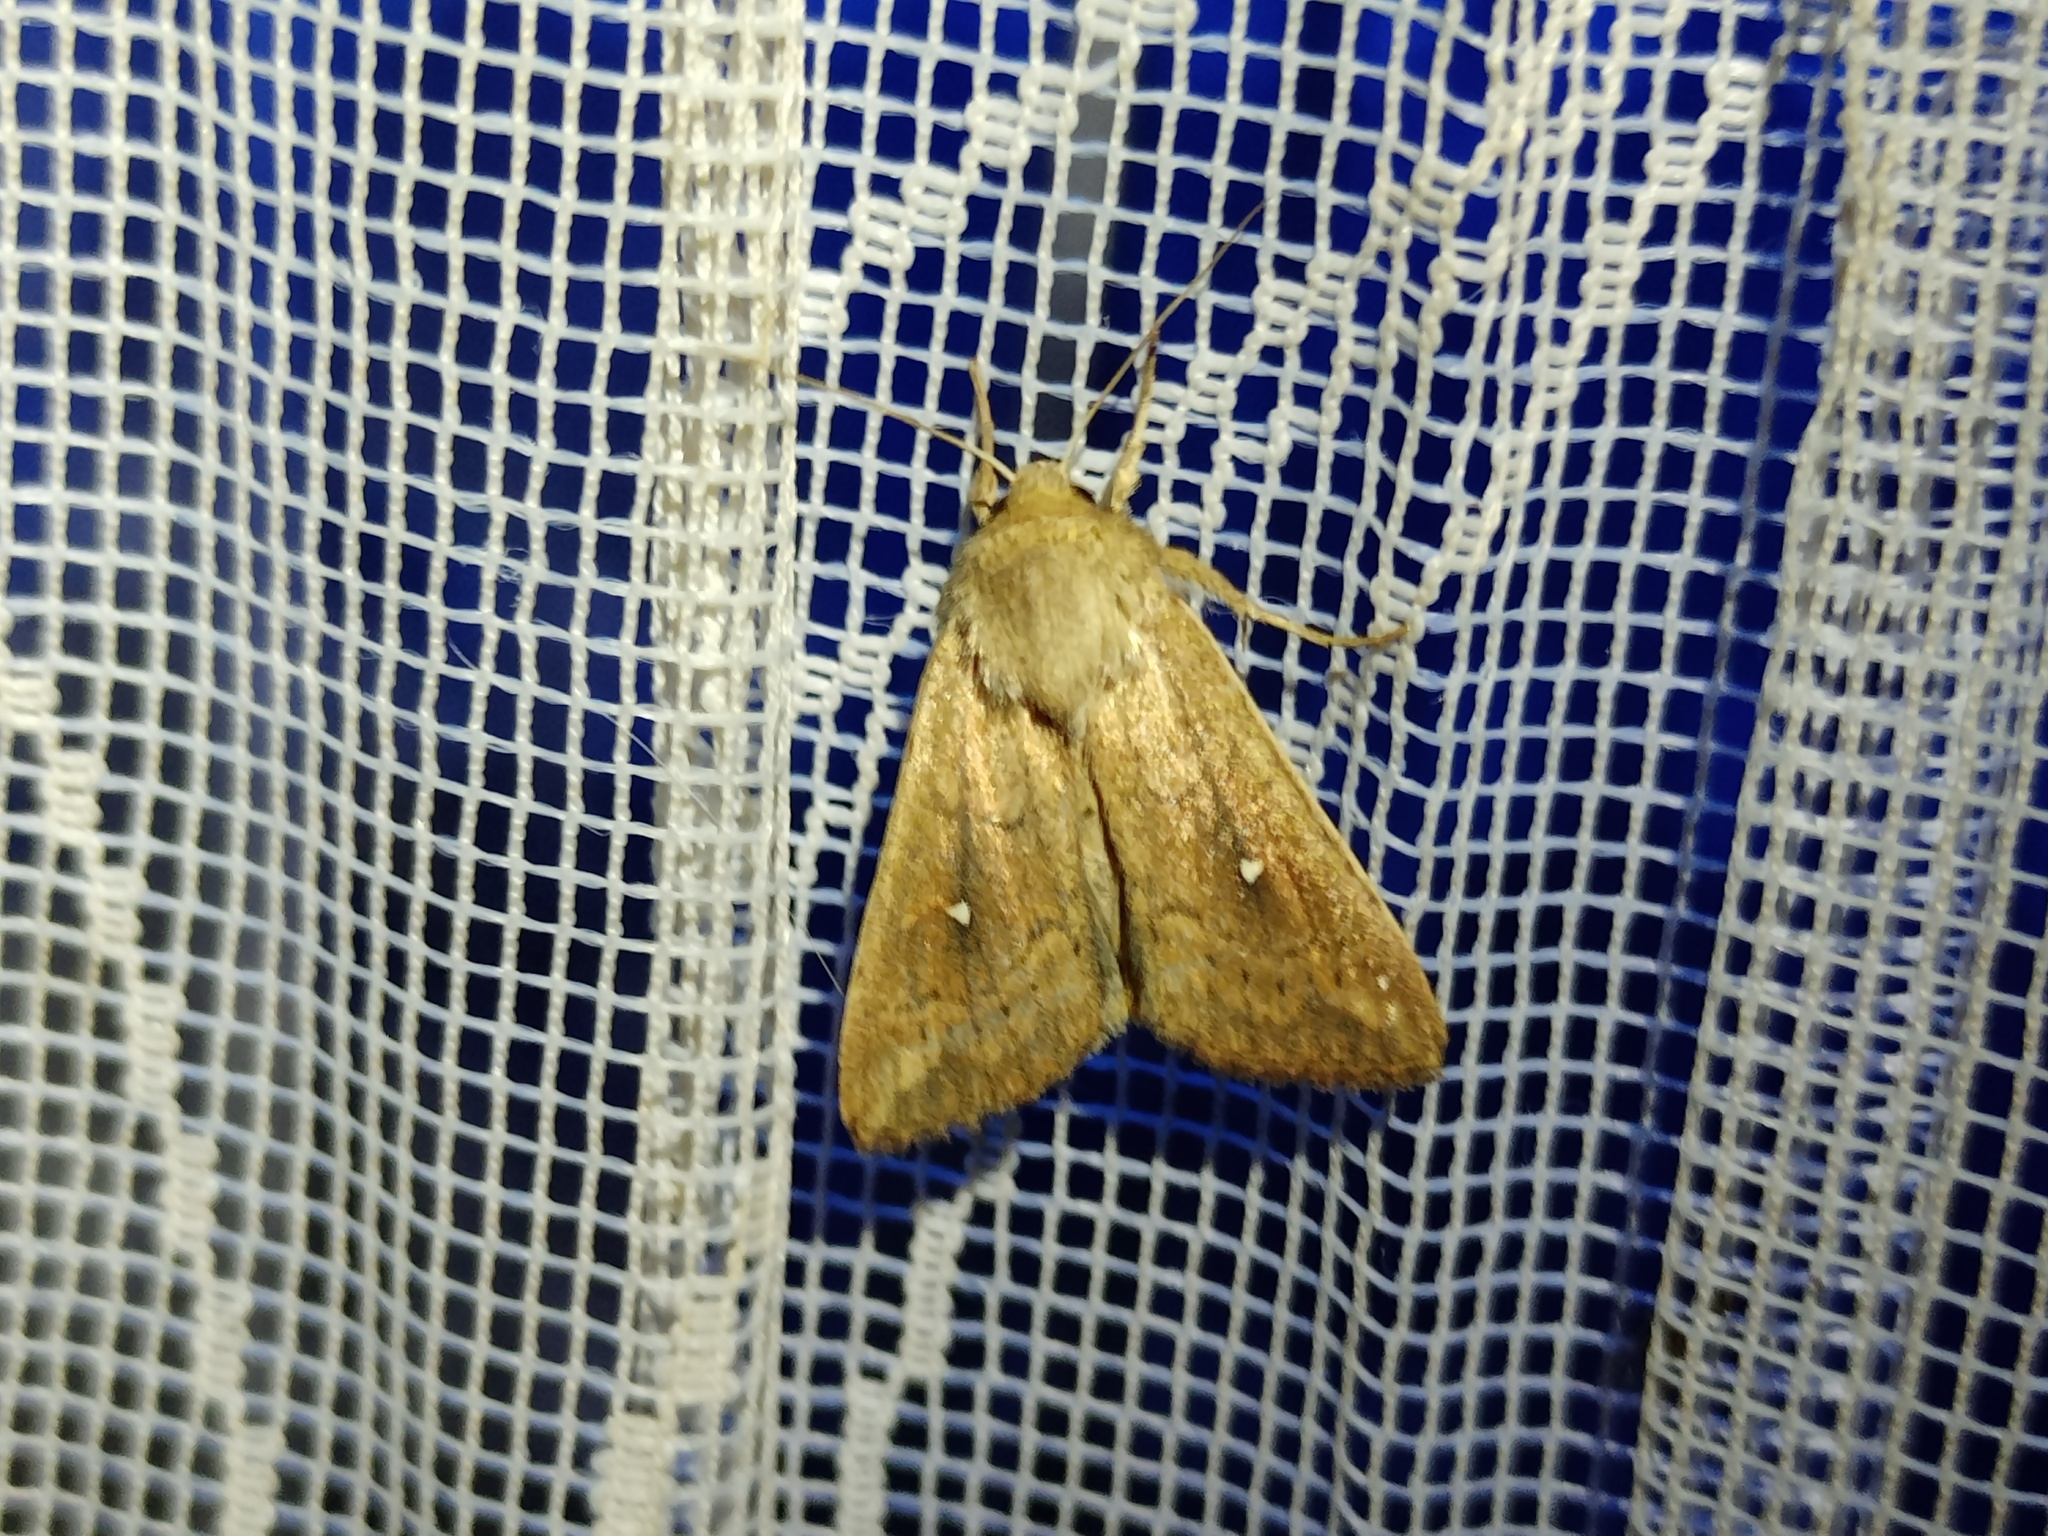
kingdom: Animalia
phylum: Arthropoda
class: Insecta
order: Lepidoptera
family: Noctuidae
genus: Mythimna
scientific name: Mythimna albipuncta
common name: White-point
